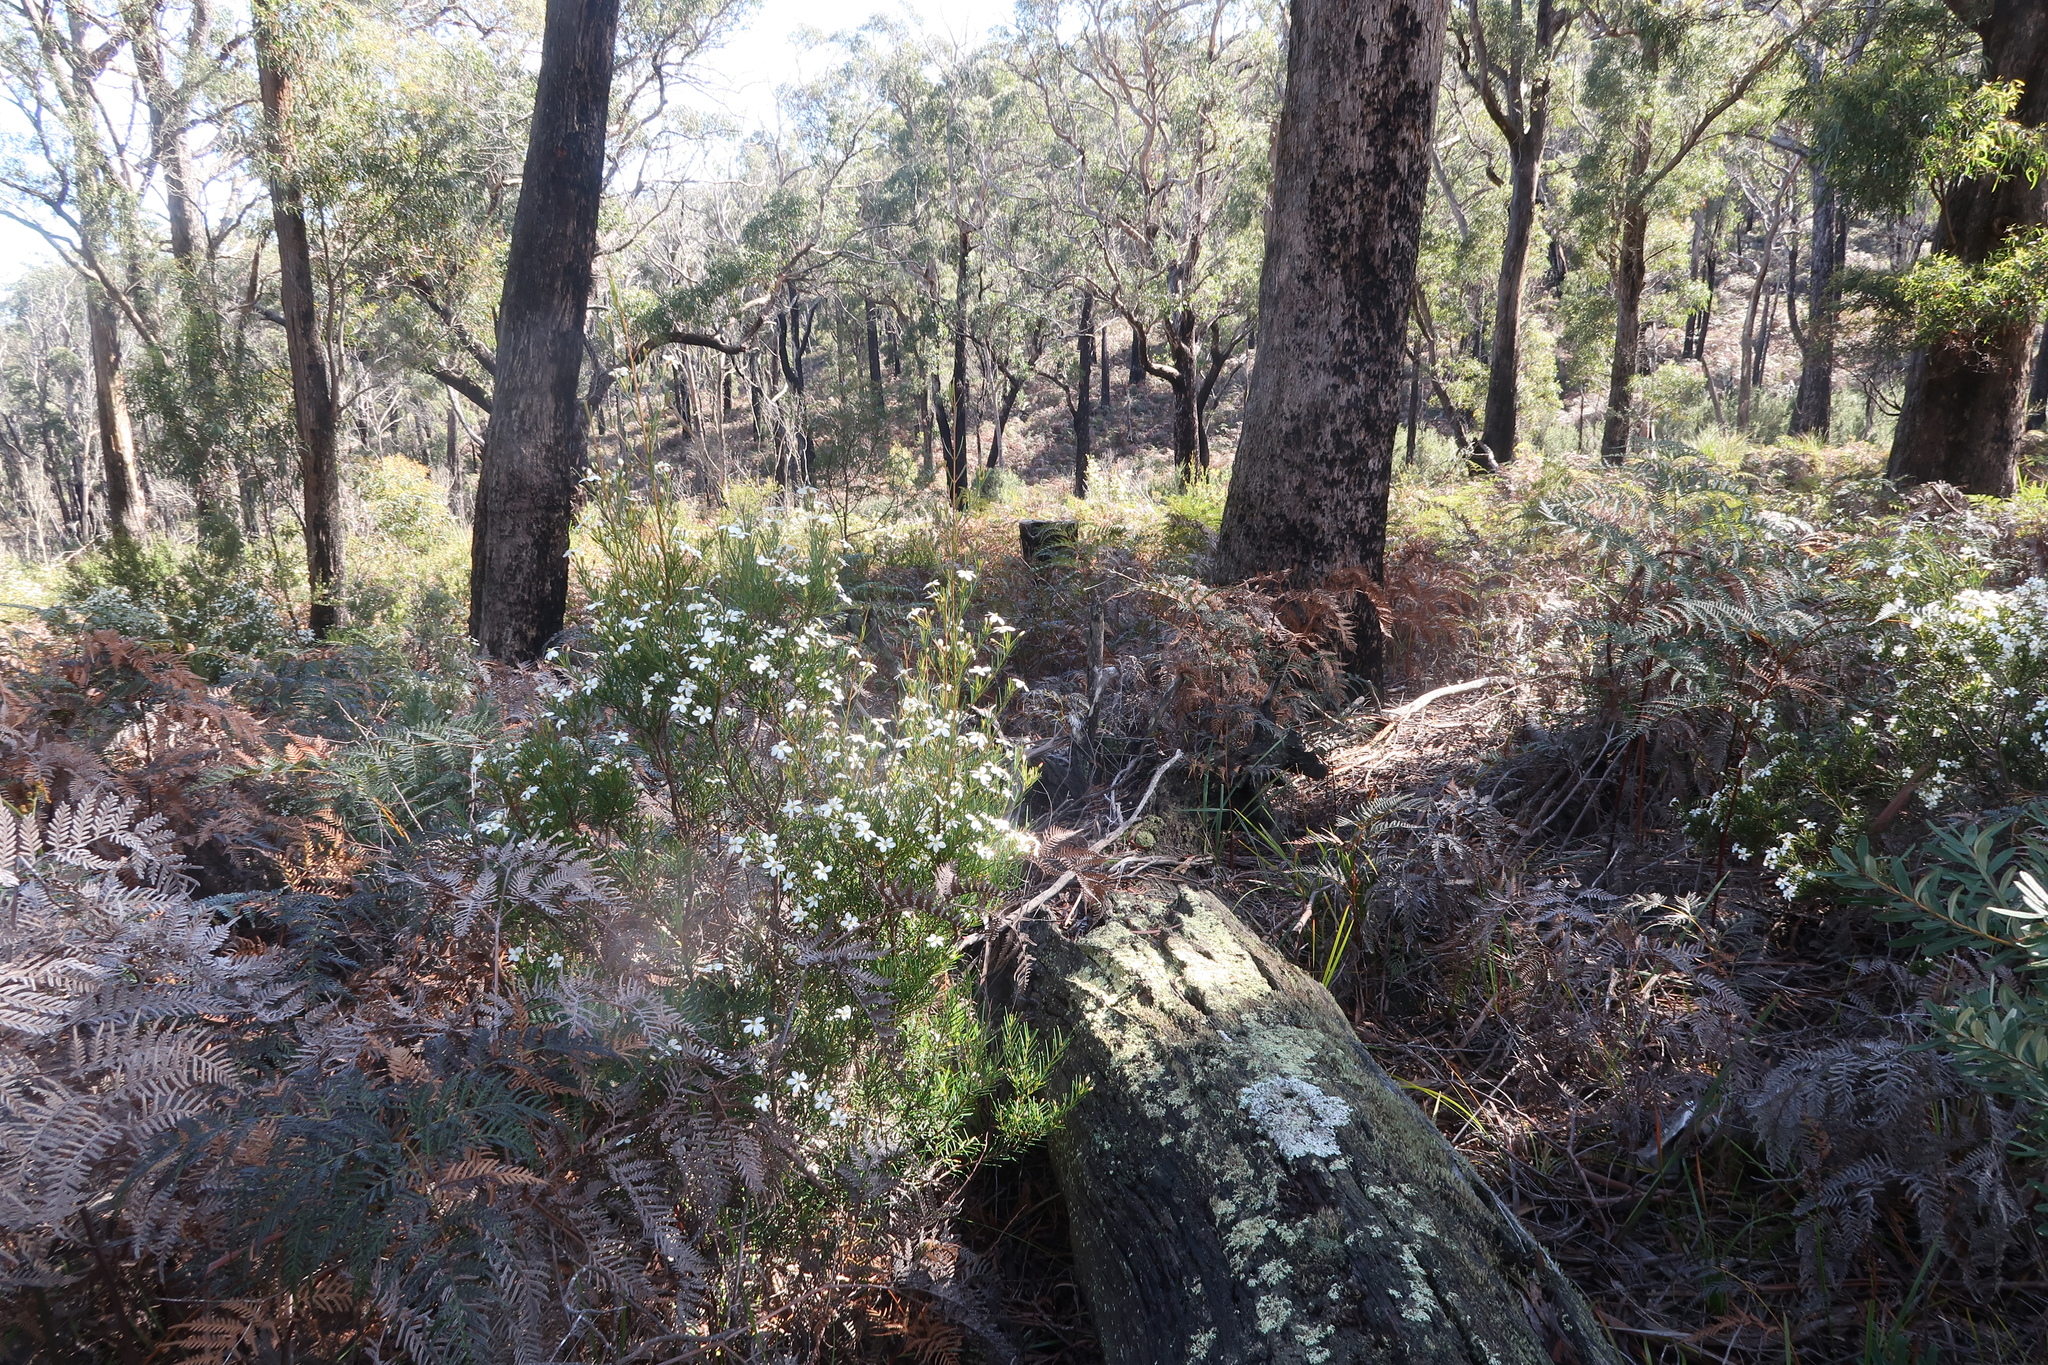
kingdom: Plantae
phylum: Tracheophyta
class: Magnoliopsida
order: Malpighiales
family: Euphorbiaceae
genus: Ricinocarpos
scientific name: Ricinocarpos pinifolius
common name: Weddingbush
